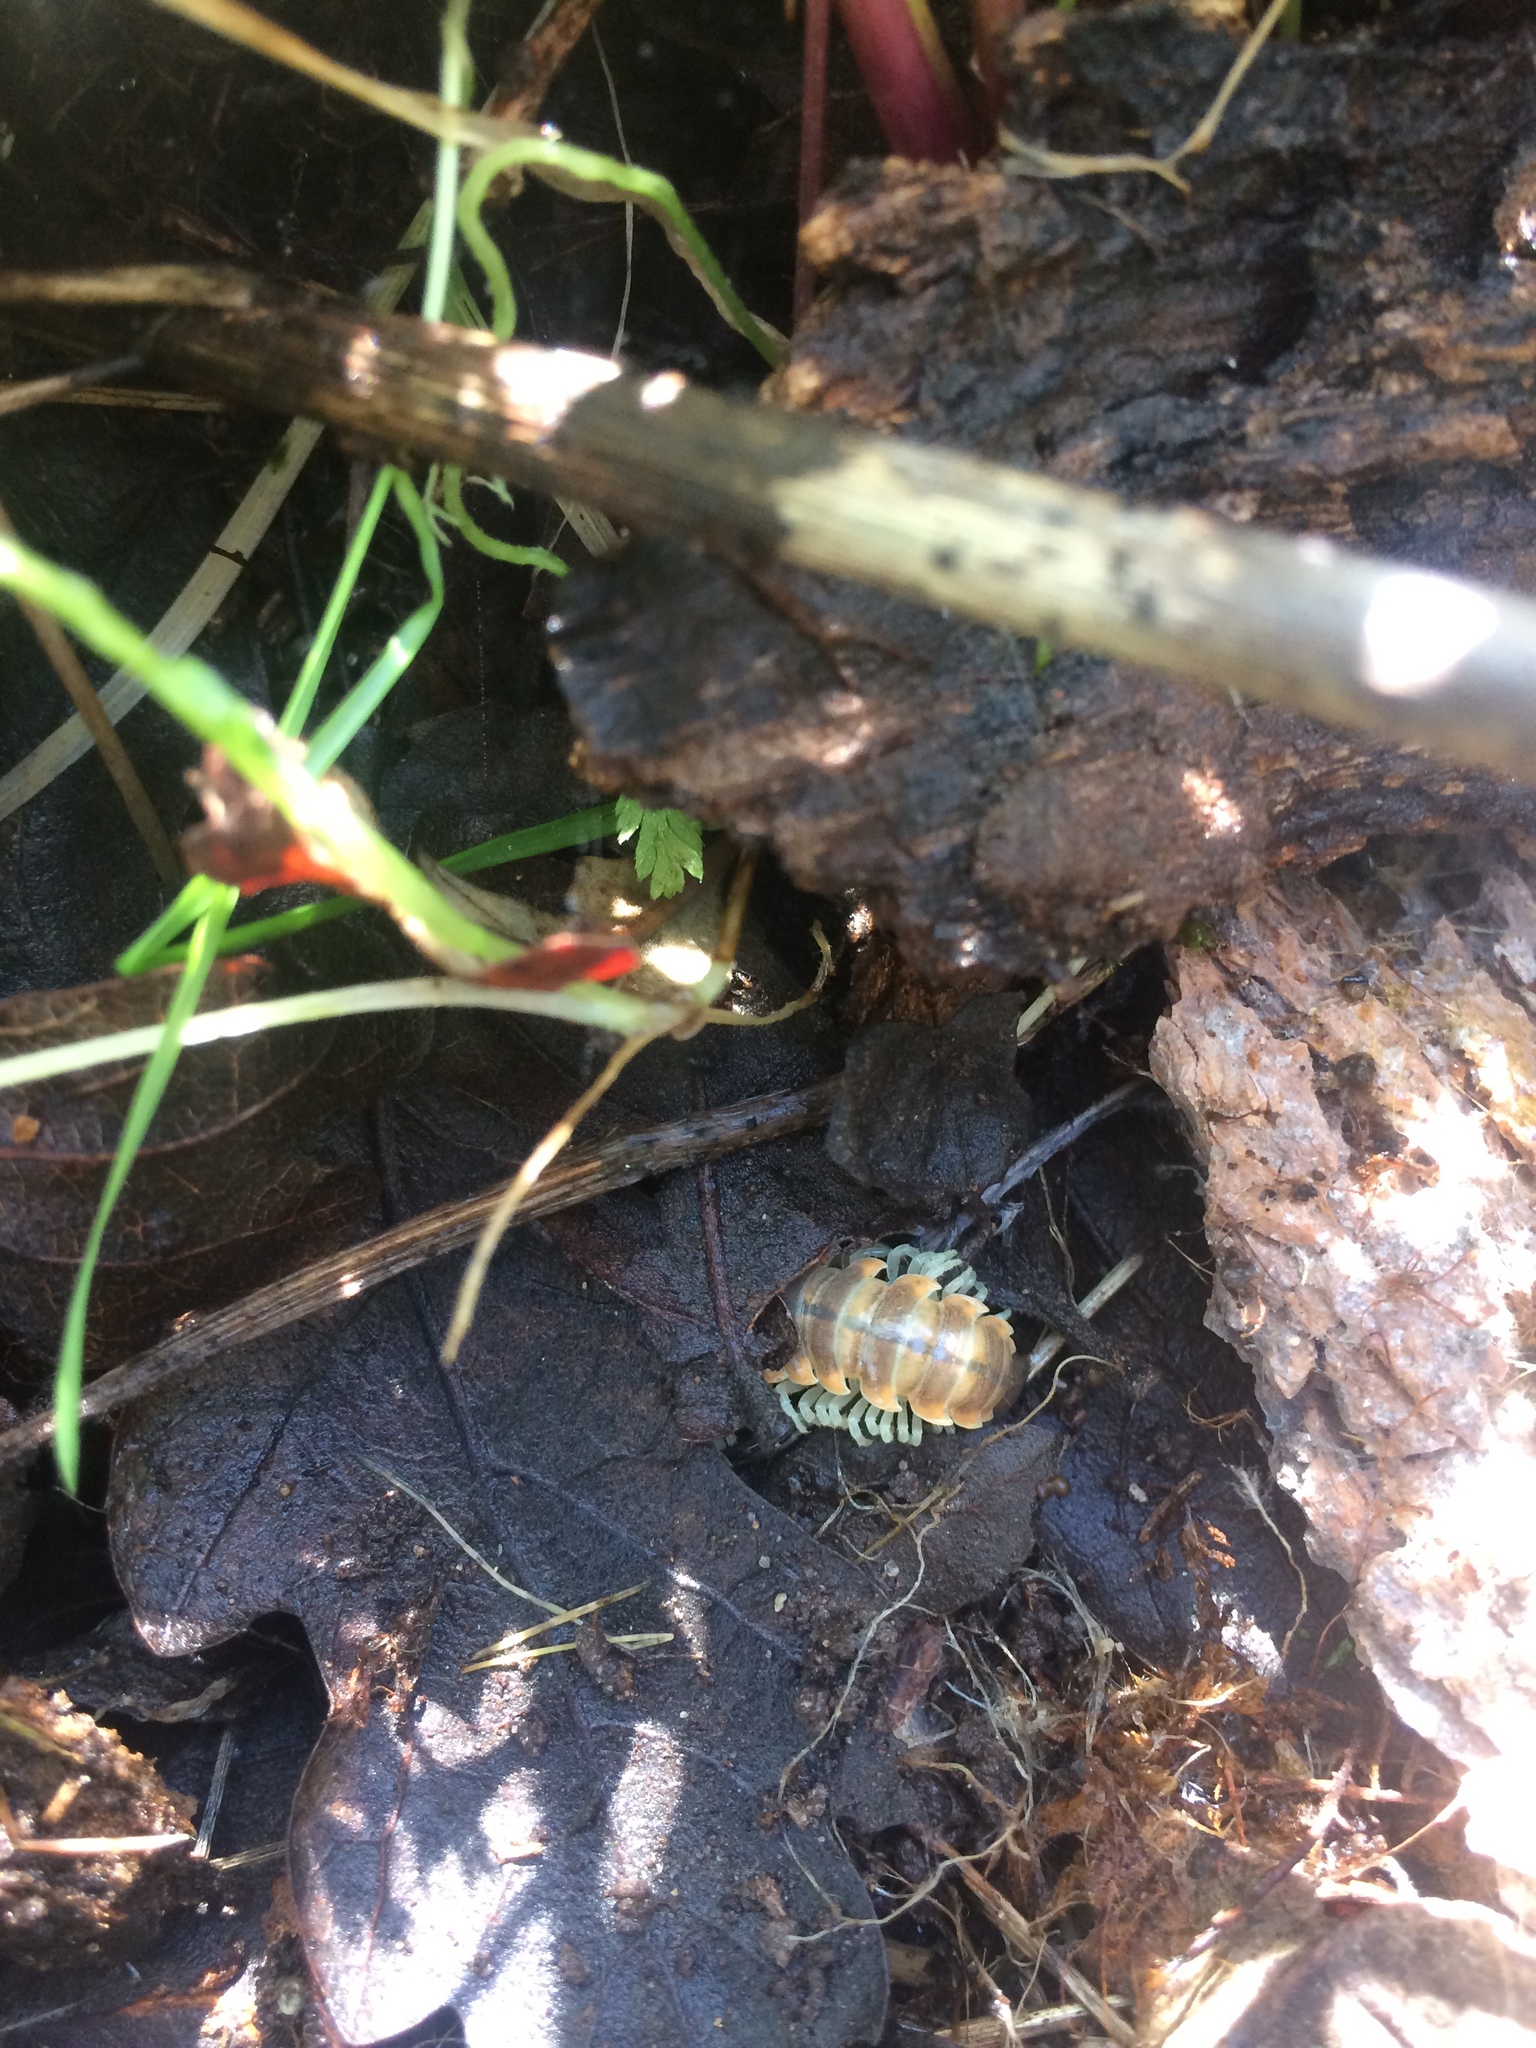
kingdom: Animalia
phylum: Arthropoda
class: Diplopoda
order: Polydesmida
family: Xystodesmidae
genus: Xystocheir
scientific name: Xystocheir dissecta
